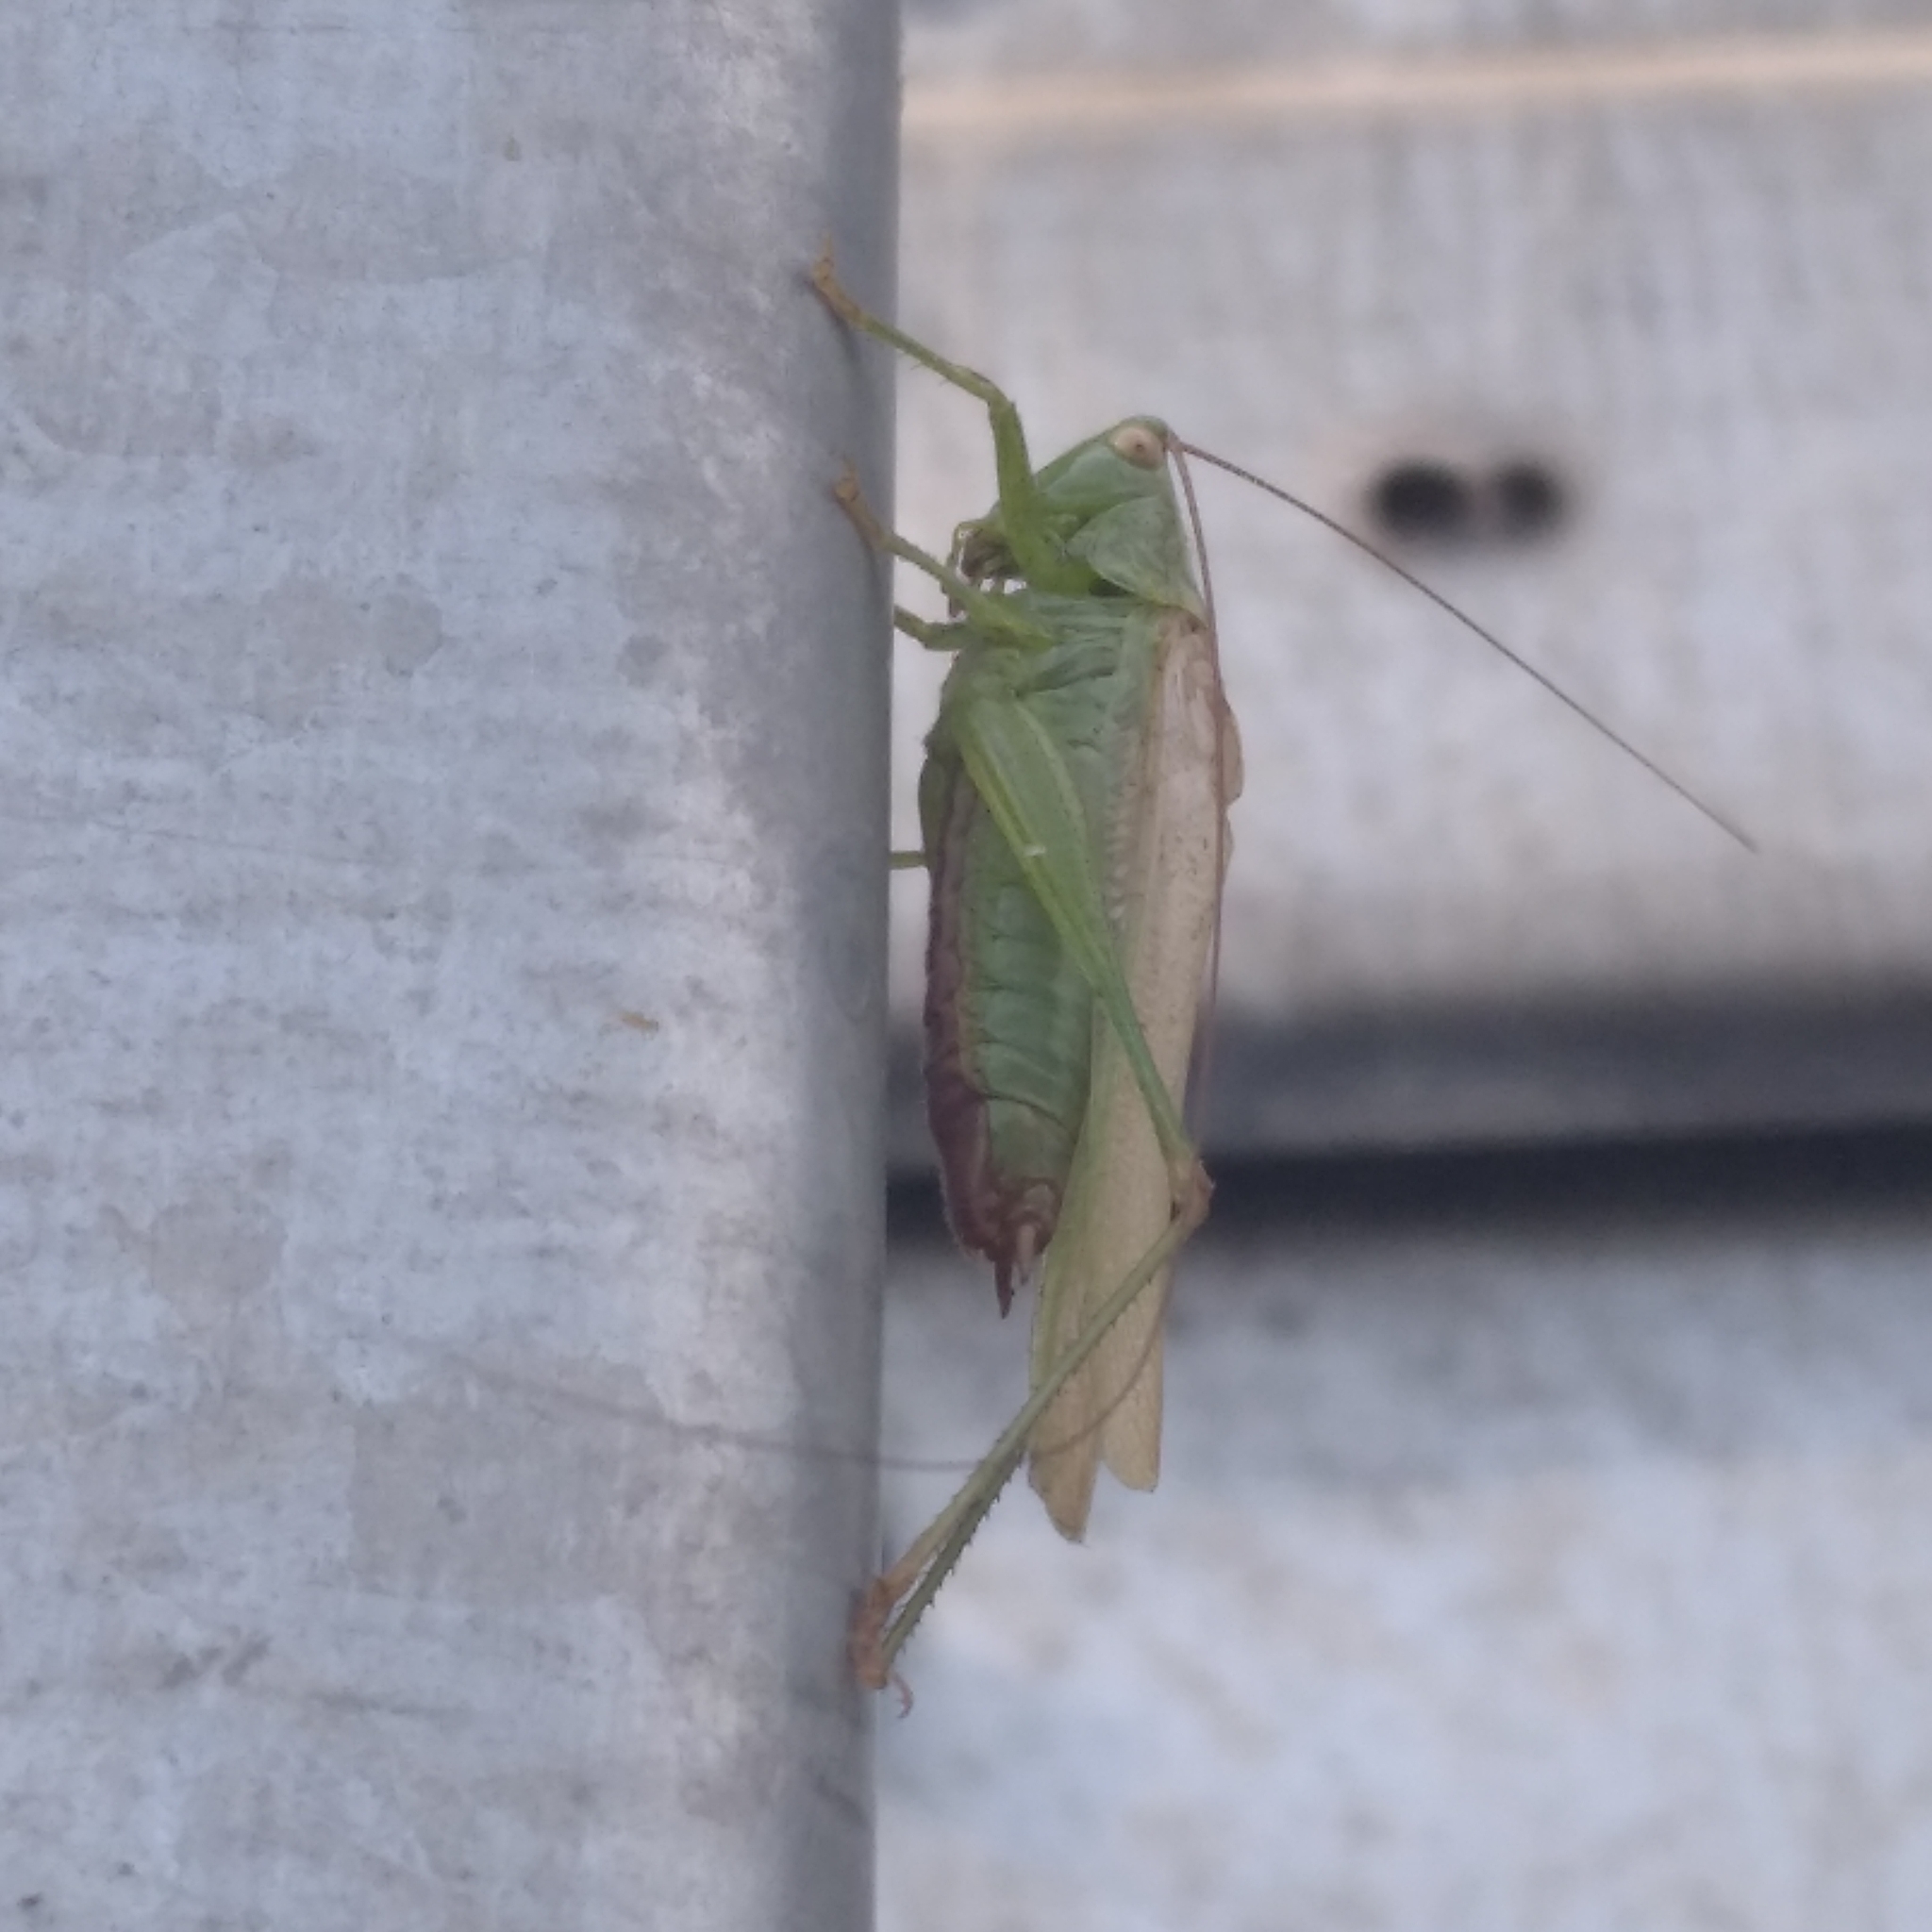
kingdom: Animalia
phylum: Arthropoda
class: Insecta
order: Orthoptera
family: Tettigoniidae
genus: Conocephalus
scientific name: Conocephalus fuscus
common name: Long-winged conehead
